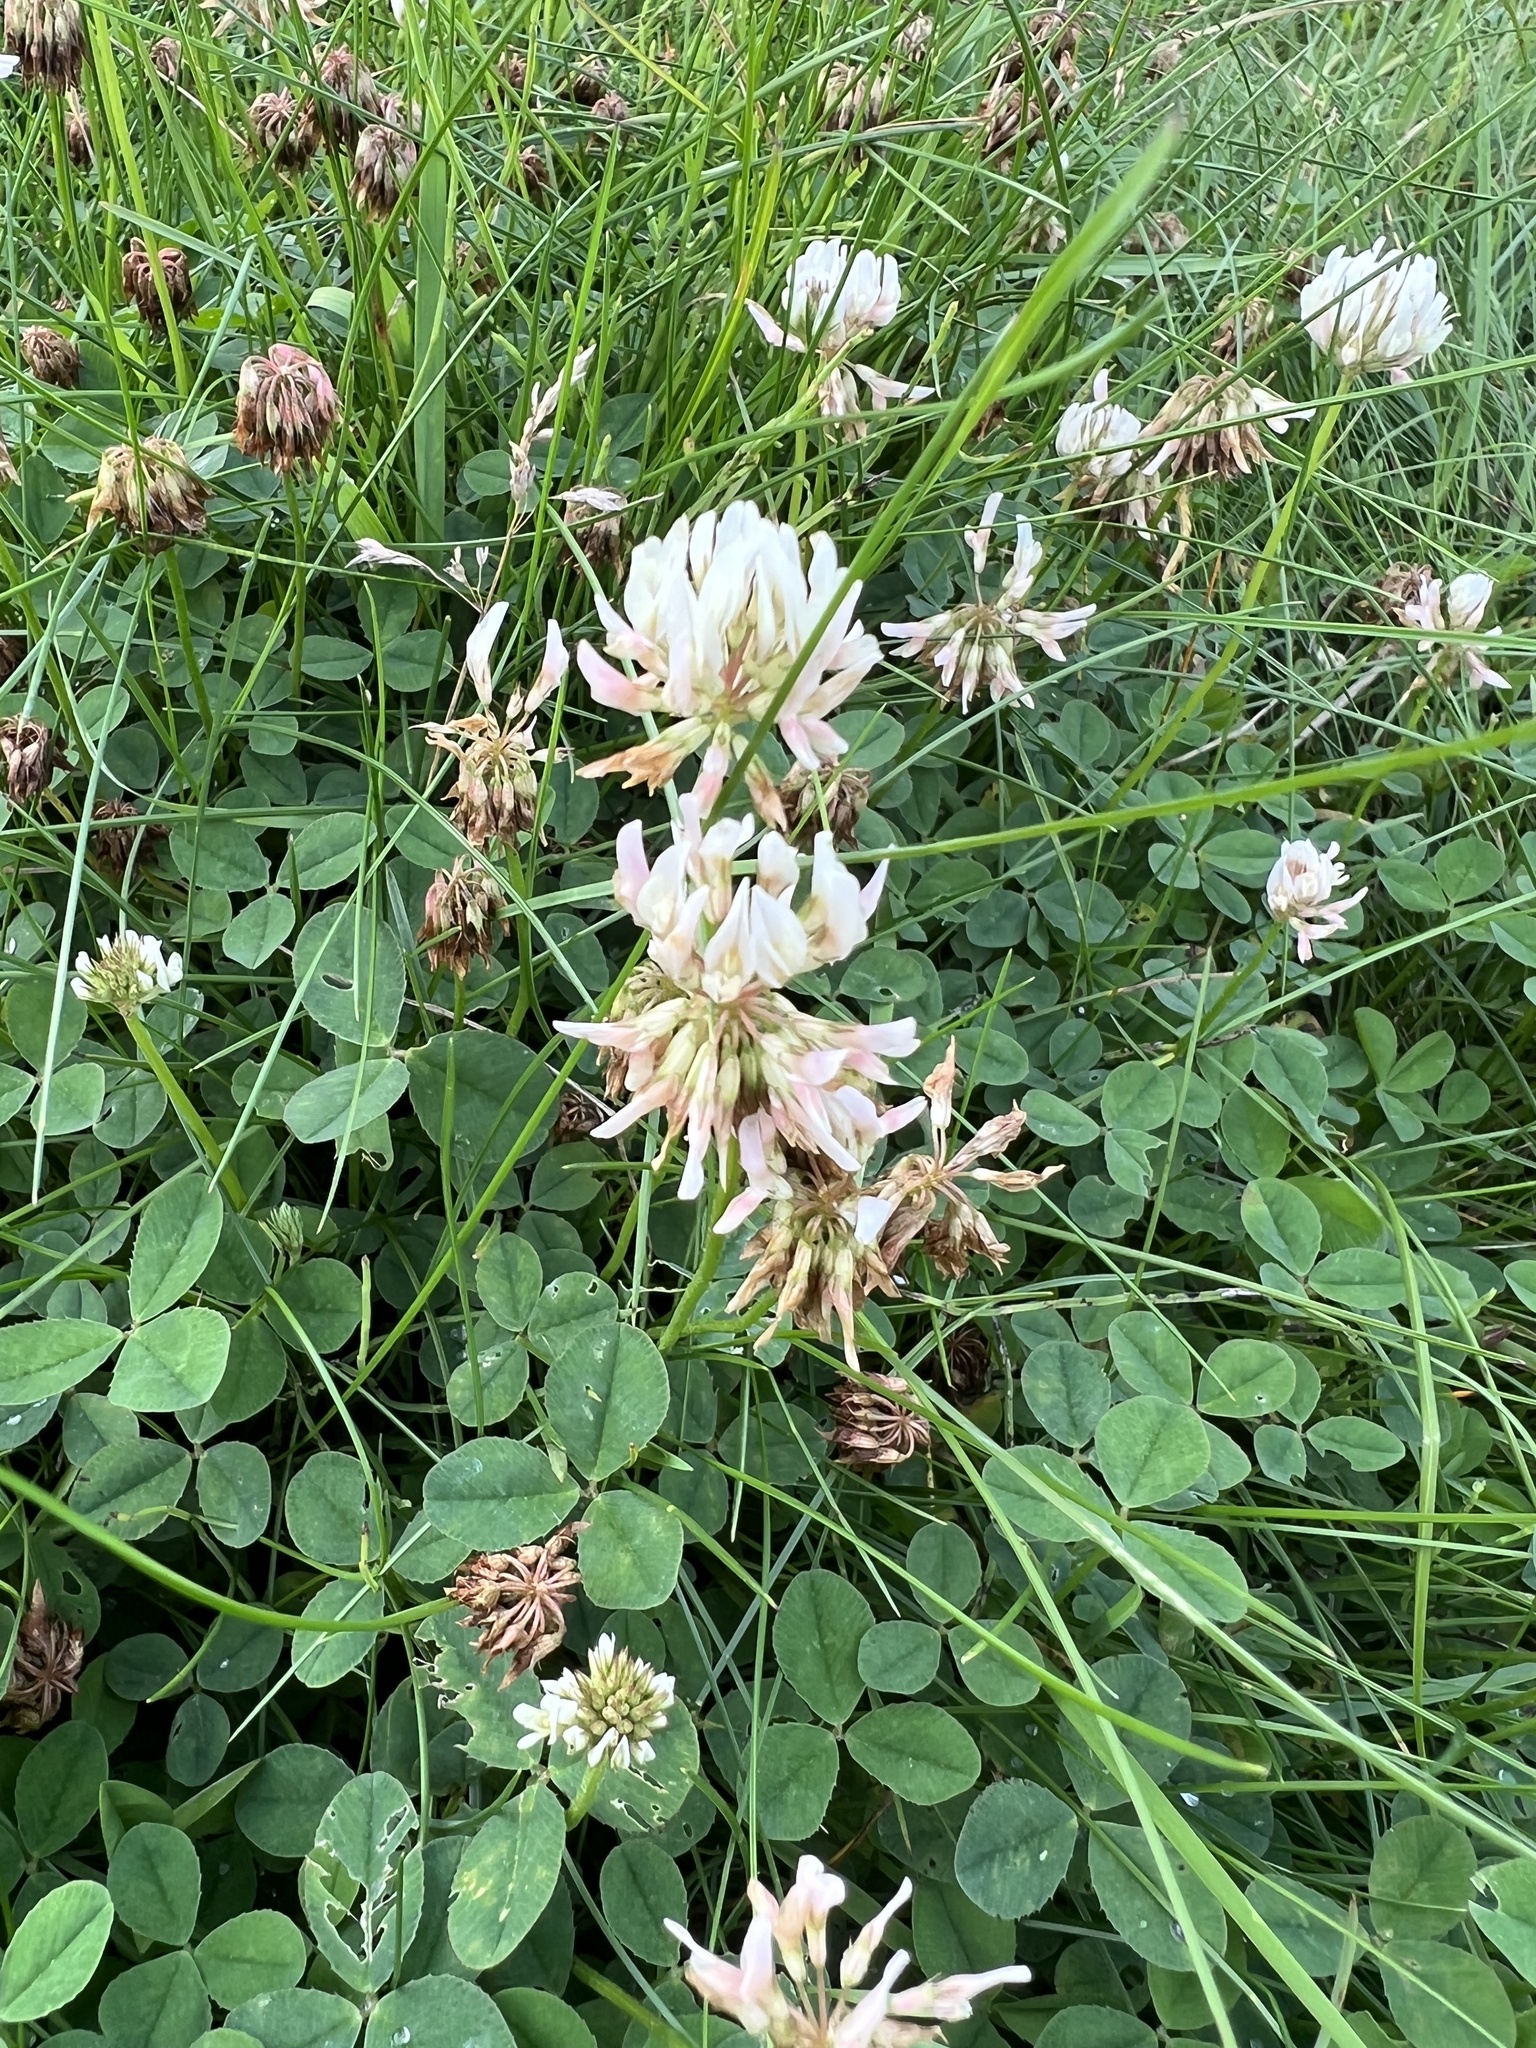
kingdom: Plantae
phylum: Tracheophyta
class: Magnoliopsida
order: Fabales
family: Fabaceae
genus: Trifolium
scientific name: Trifolium repens
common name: White clover
